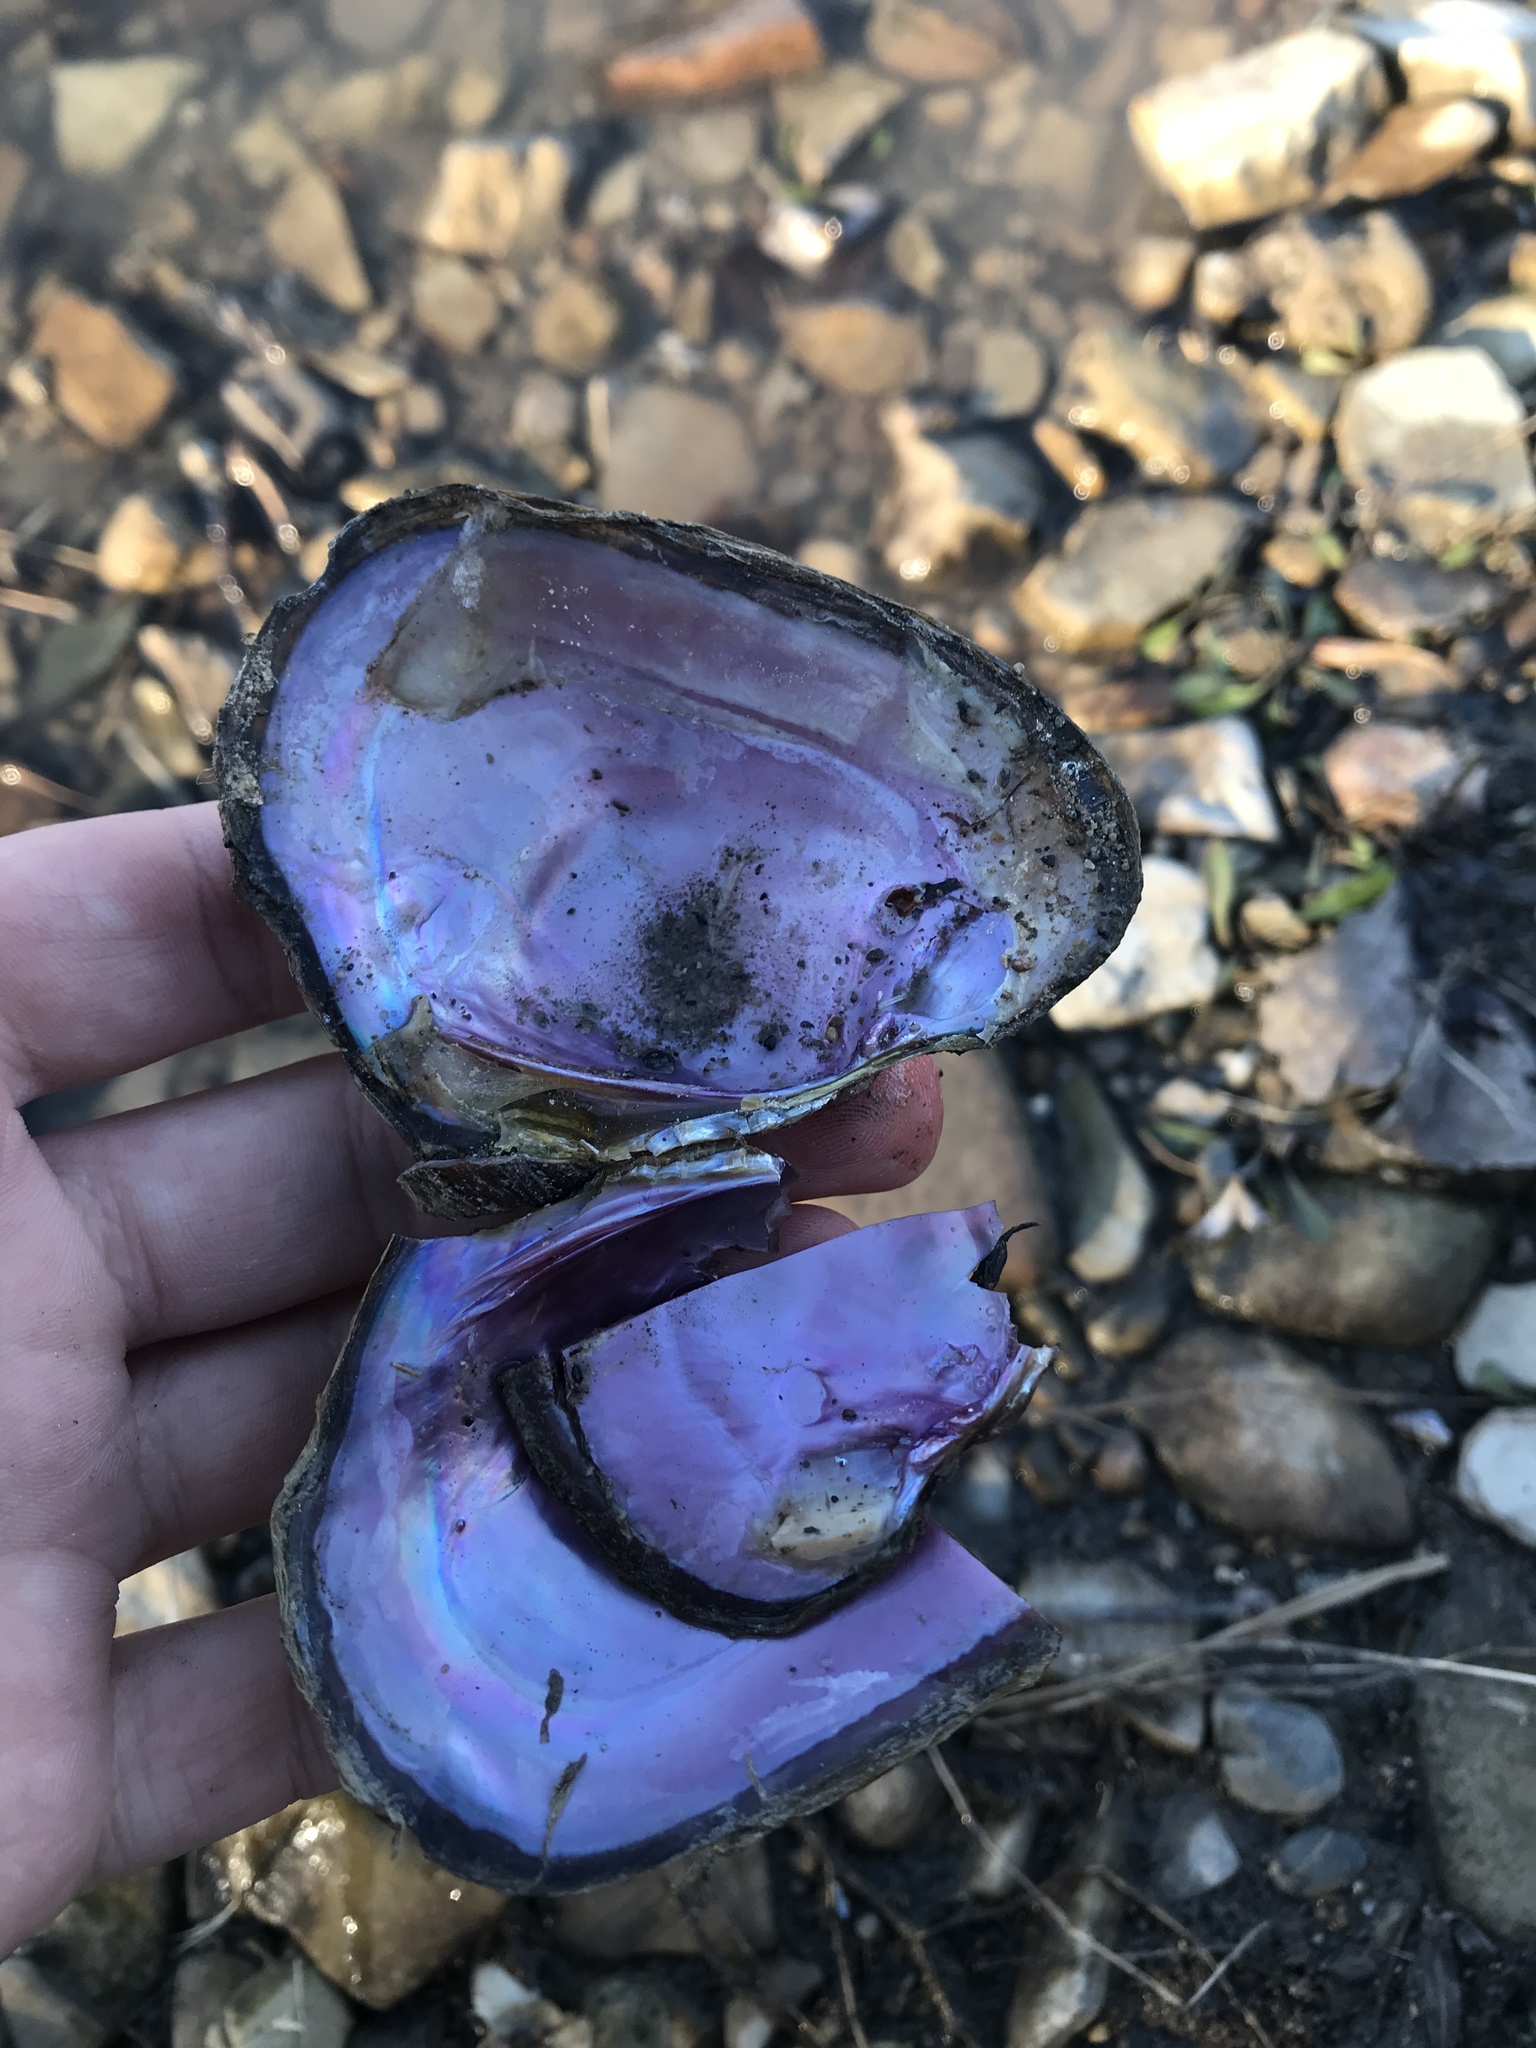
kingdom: Animalia
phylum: Mollusca
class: Bivalvia
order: Unionida
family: Unionidae
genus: Potamilus
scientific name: Potamilus alatus
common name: Pink heelsplitter
